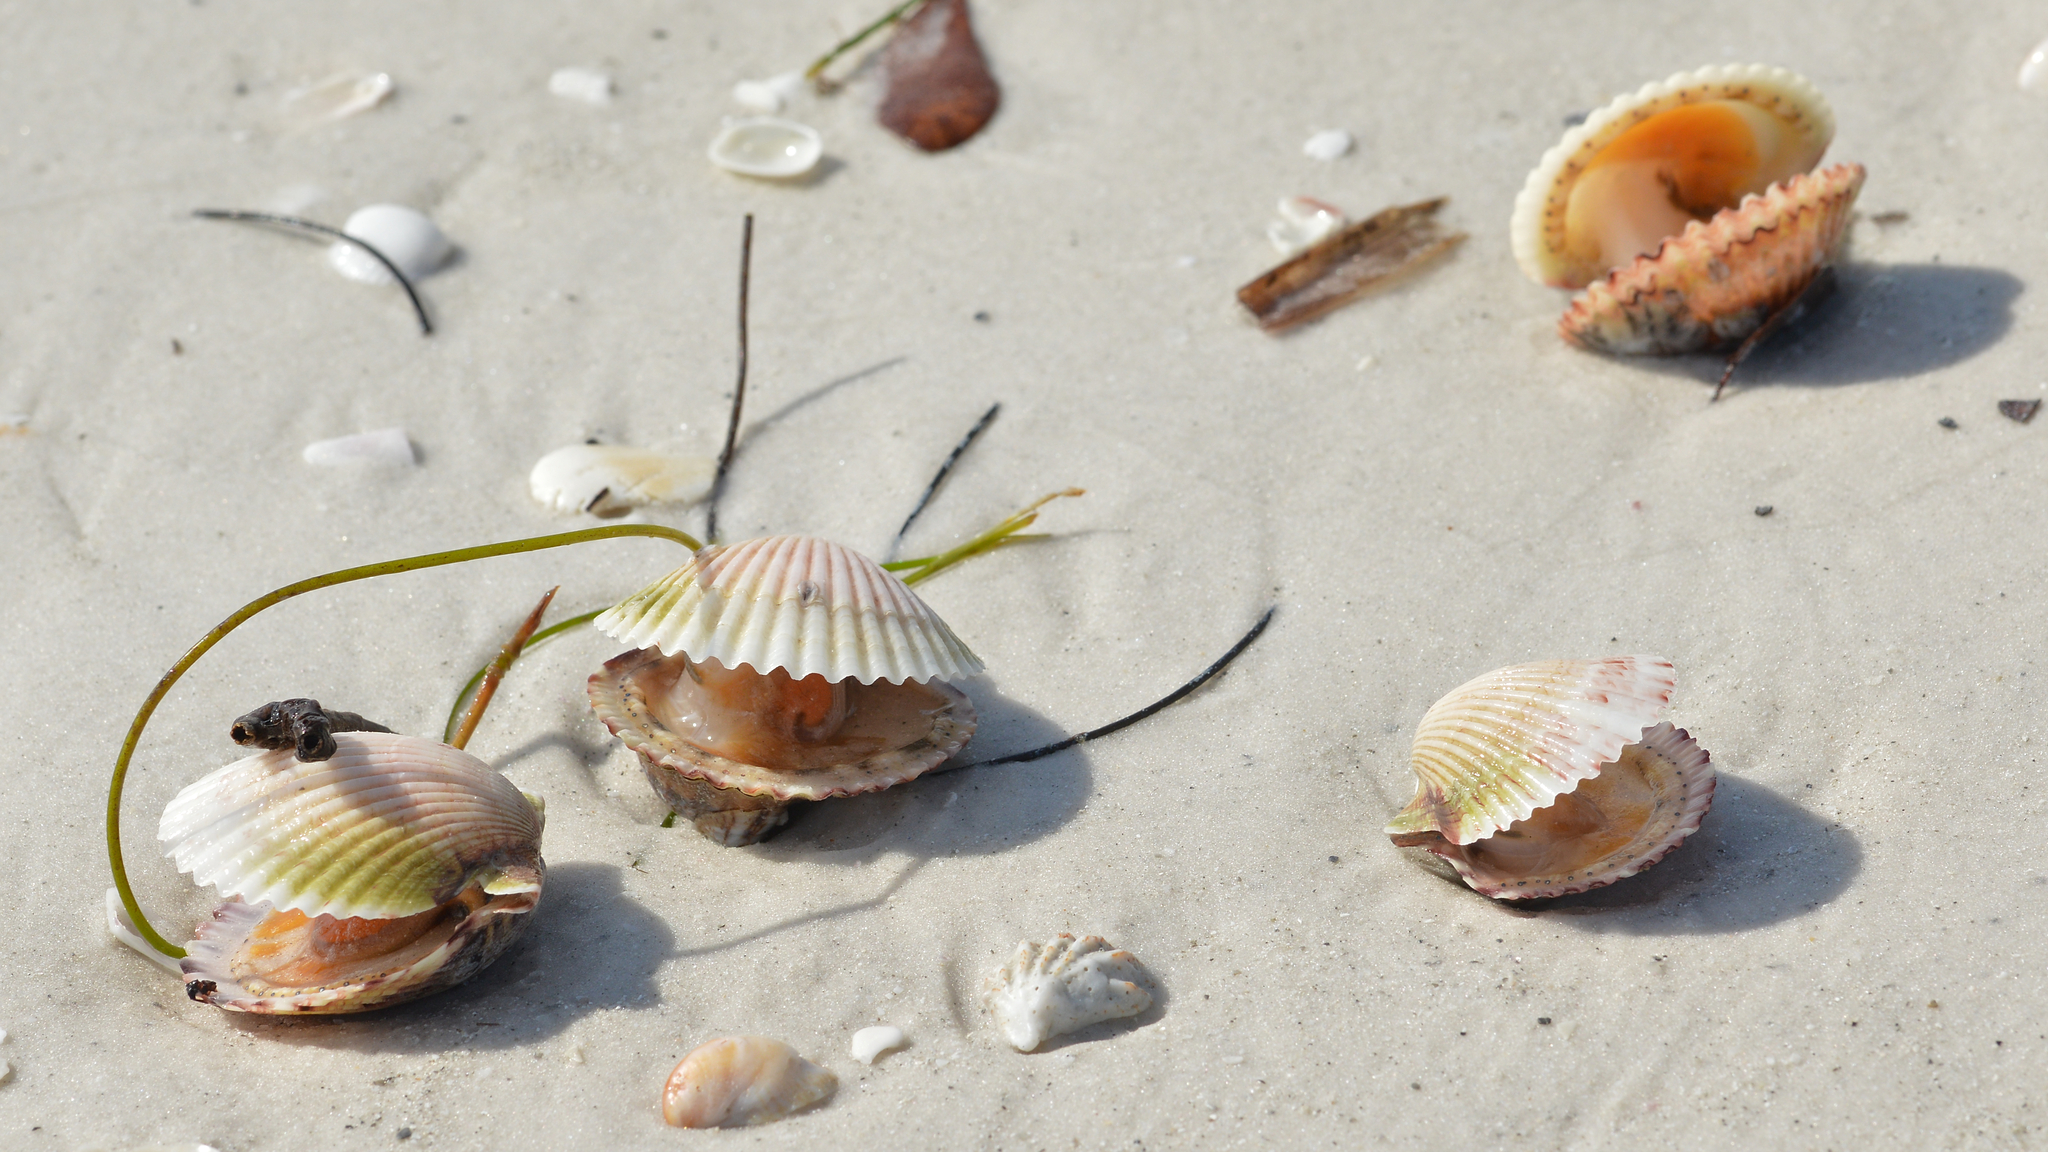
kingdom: Animalia
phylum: Mollusca
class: Bivalvia
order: Pectinida
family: Pectinidae
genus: Argopecten
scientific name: Argopecten gibbus
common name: Atlantic calico scallop
